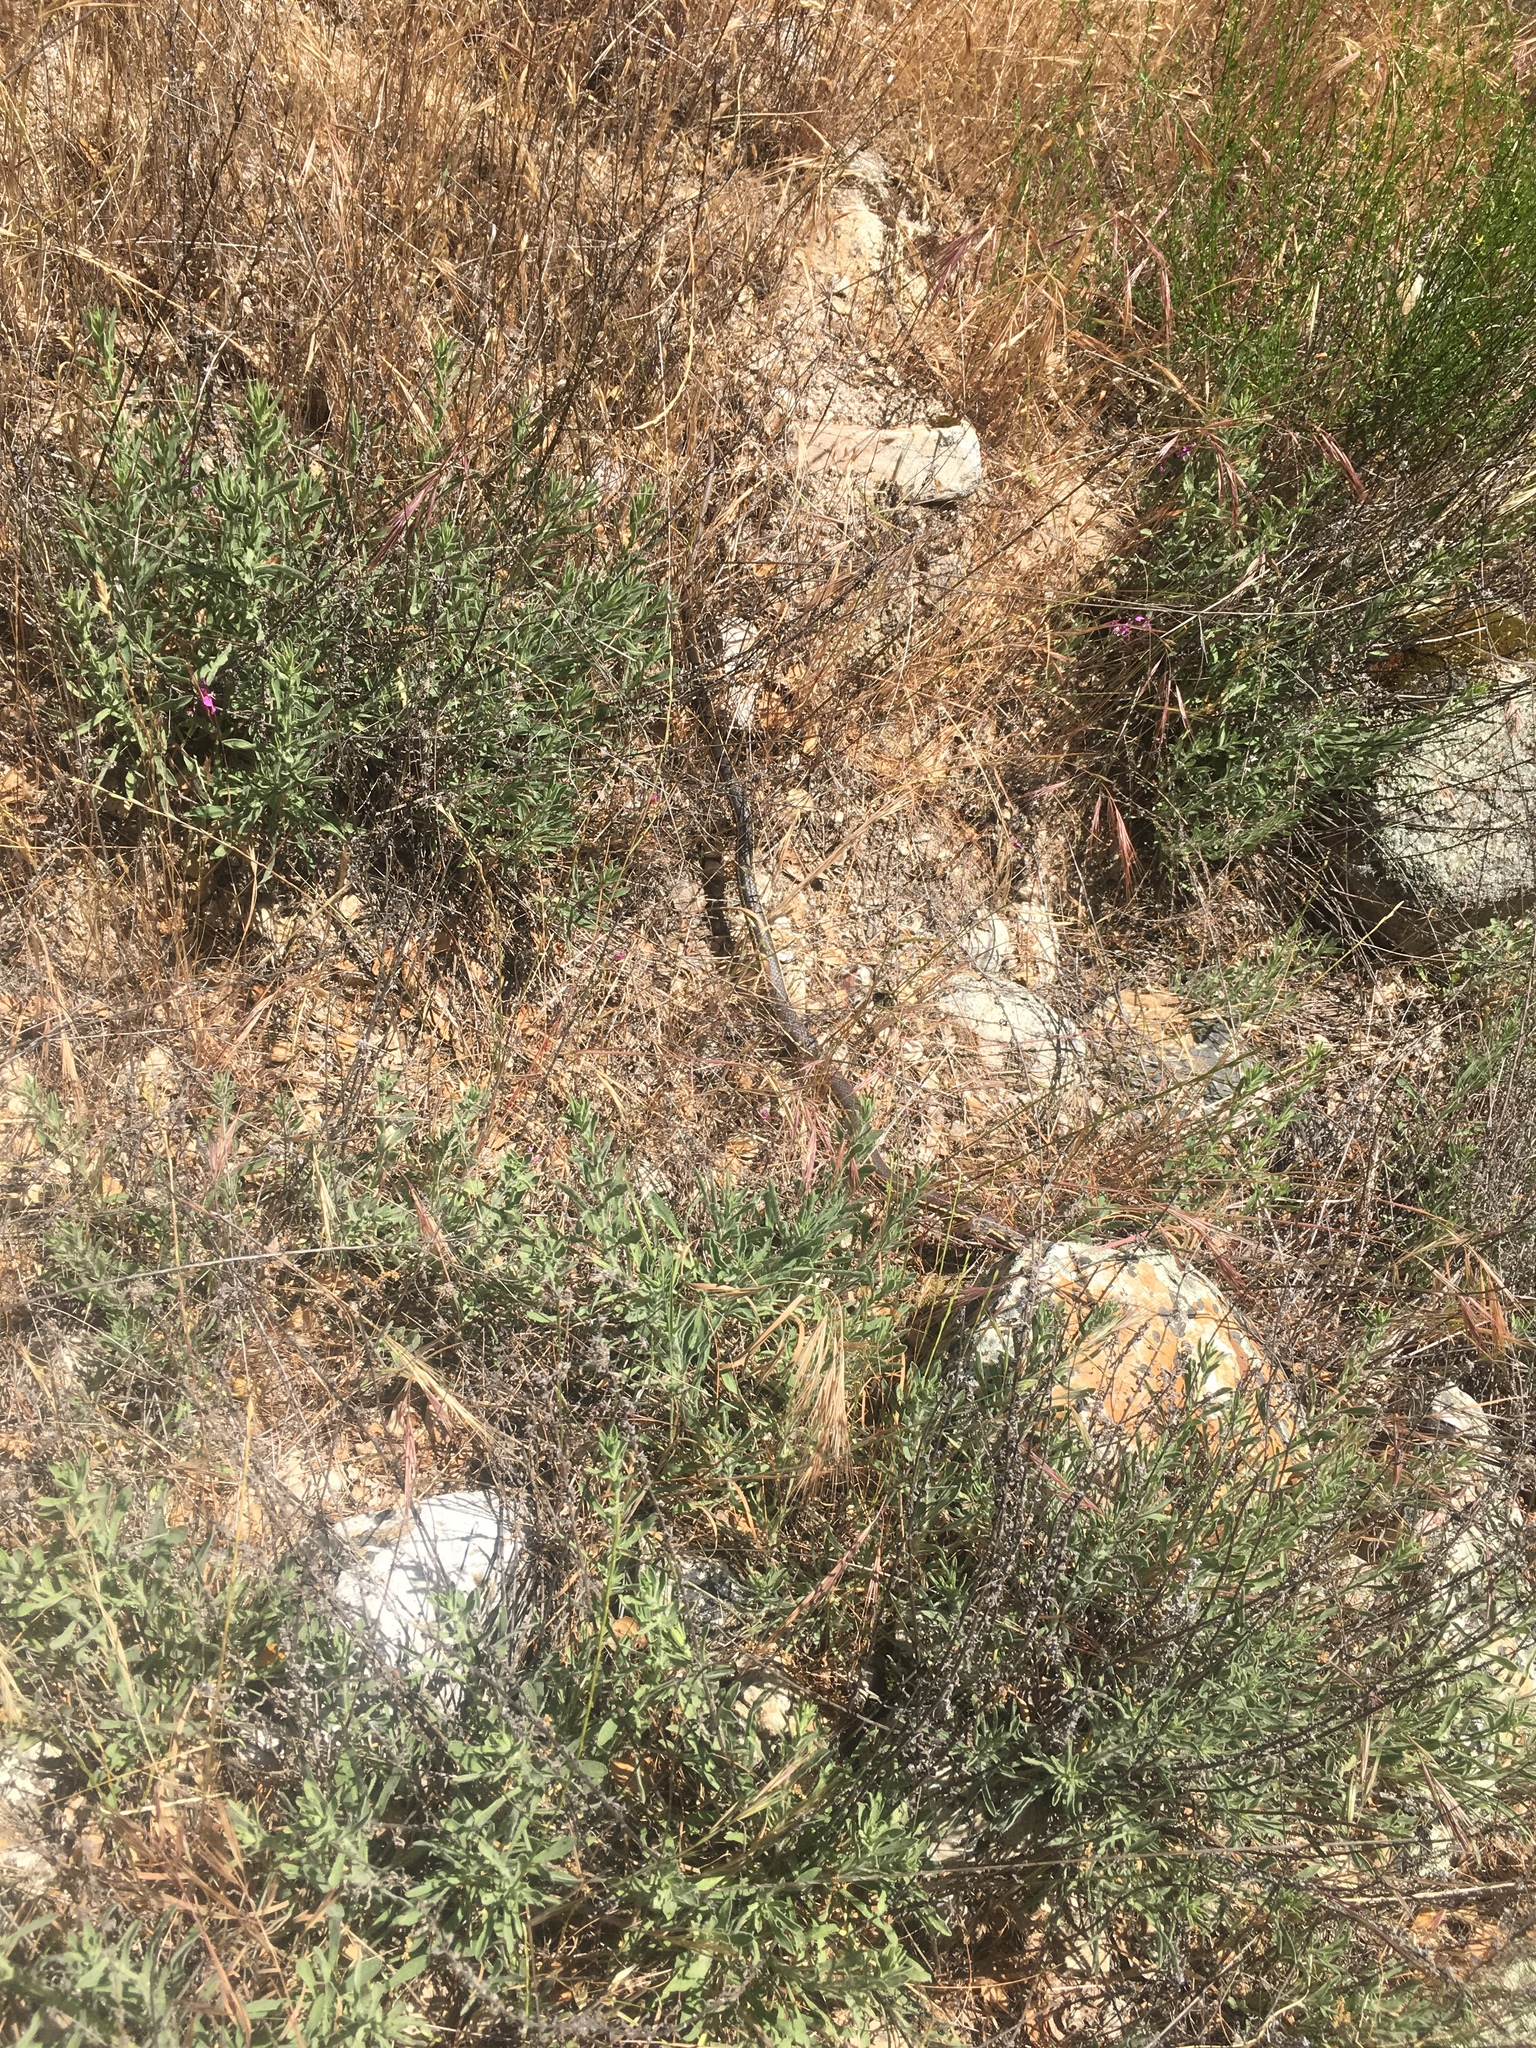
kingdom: Animalia
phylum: Chordata
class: Squamata
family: Colubridae
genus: Masticophis
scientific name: Masticophis lateralis
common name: Striped racer
